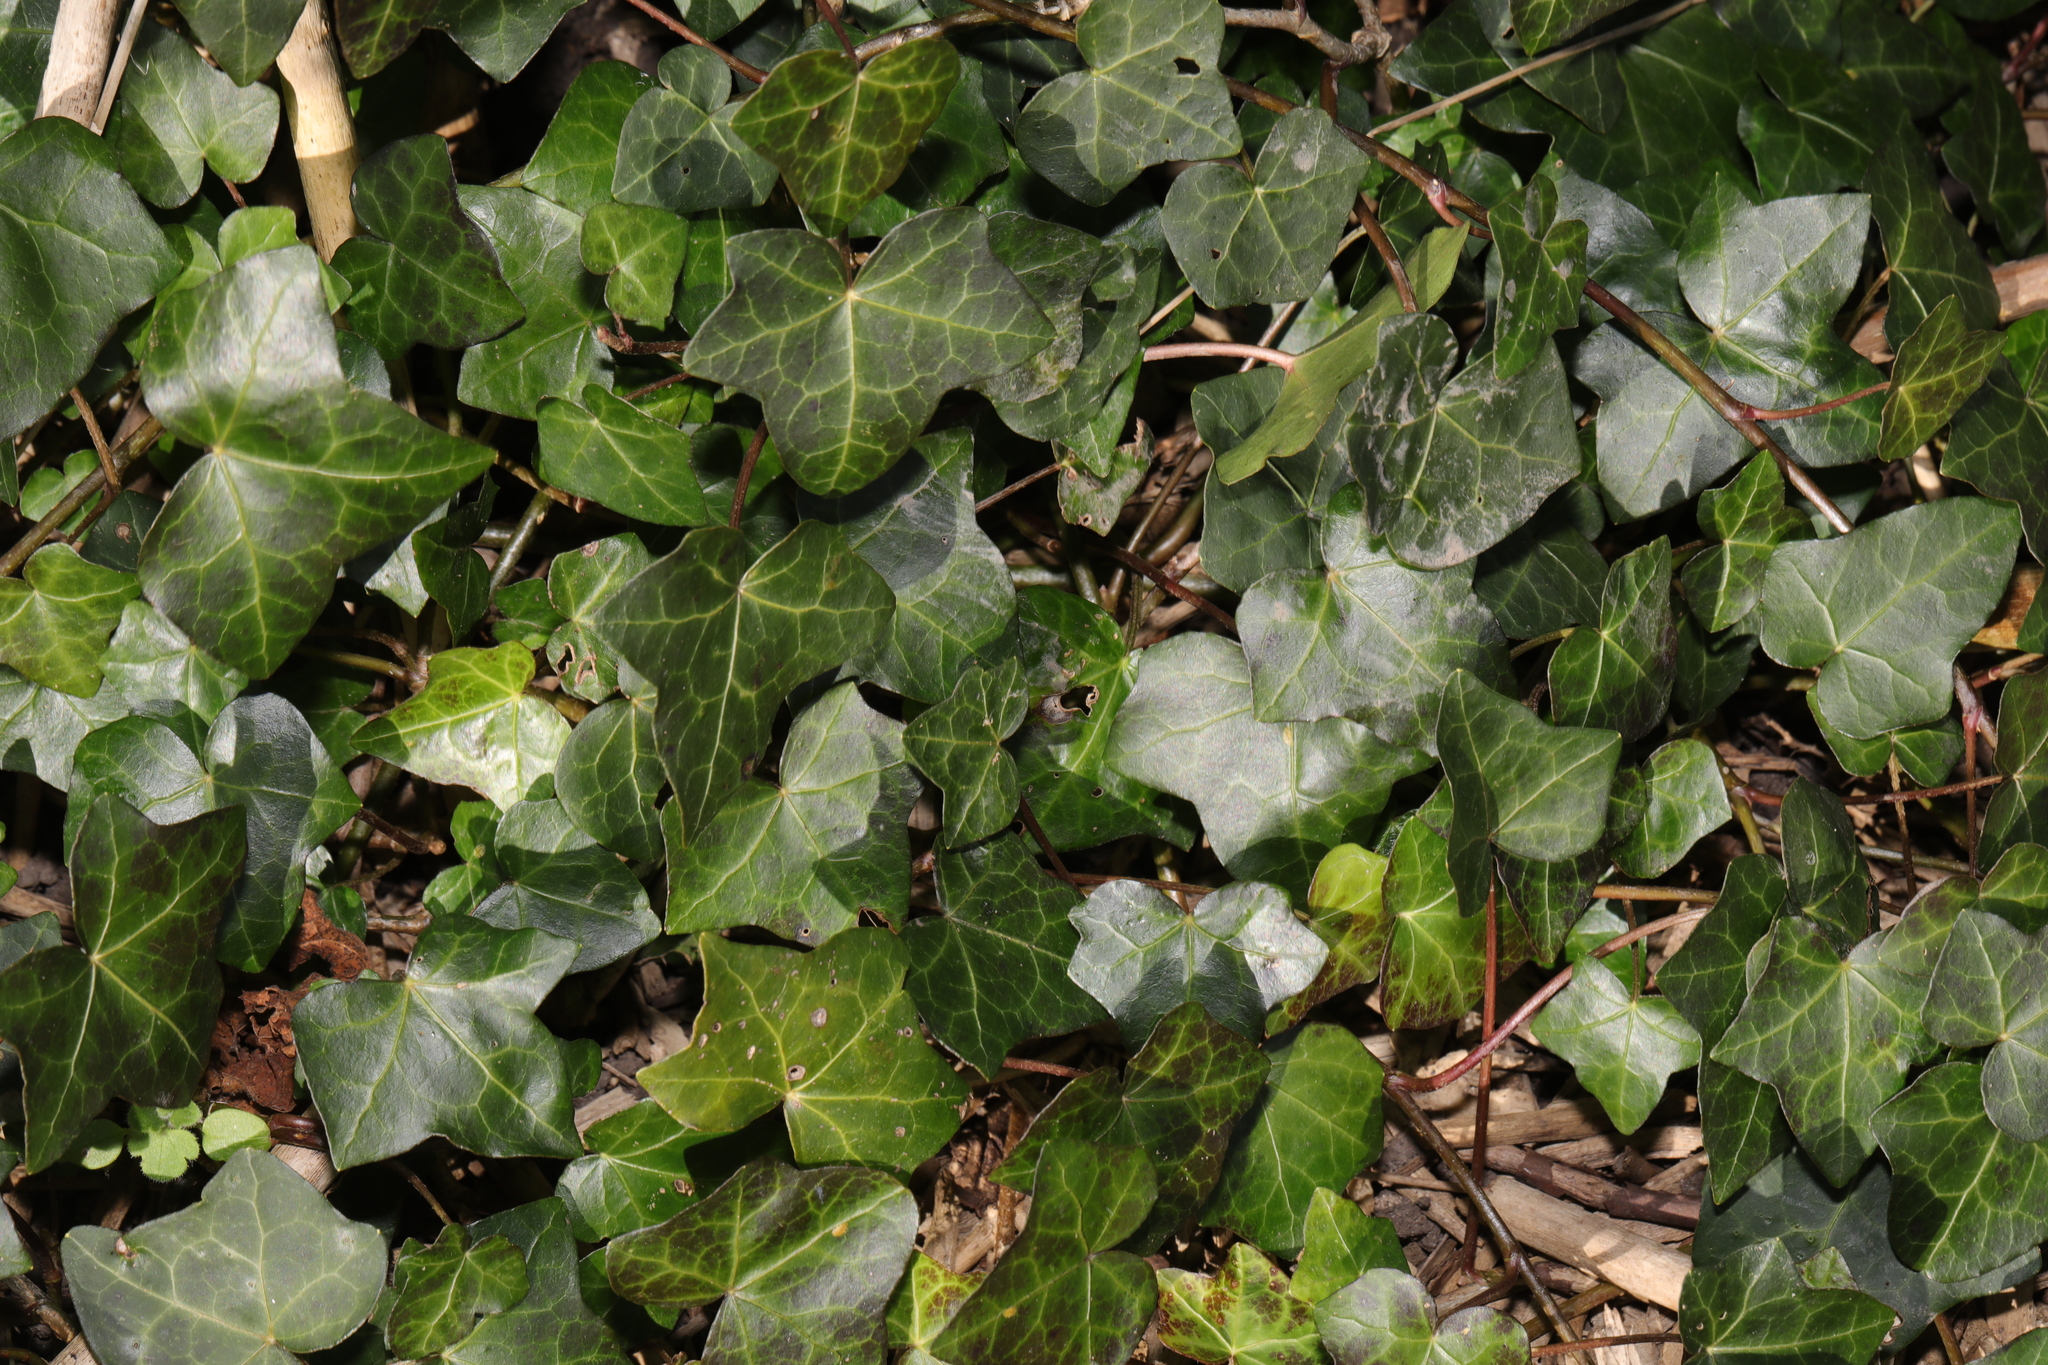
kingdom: Plantae
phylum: Tracheophyta
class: Magnoliopsida
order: Apiales
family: Araliaceae
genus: Hedera
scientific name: Hedera helix
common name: Ivy
